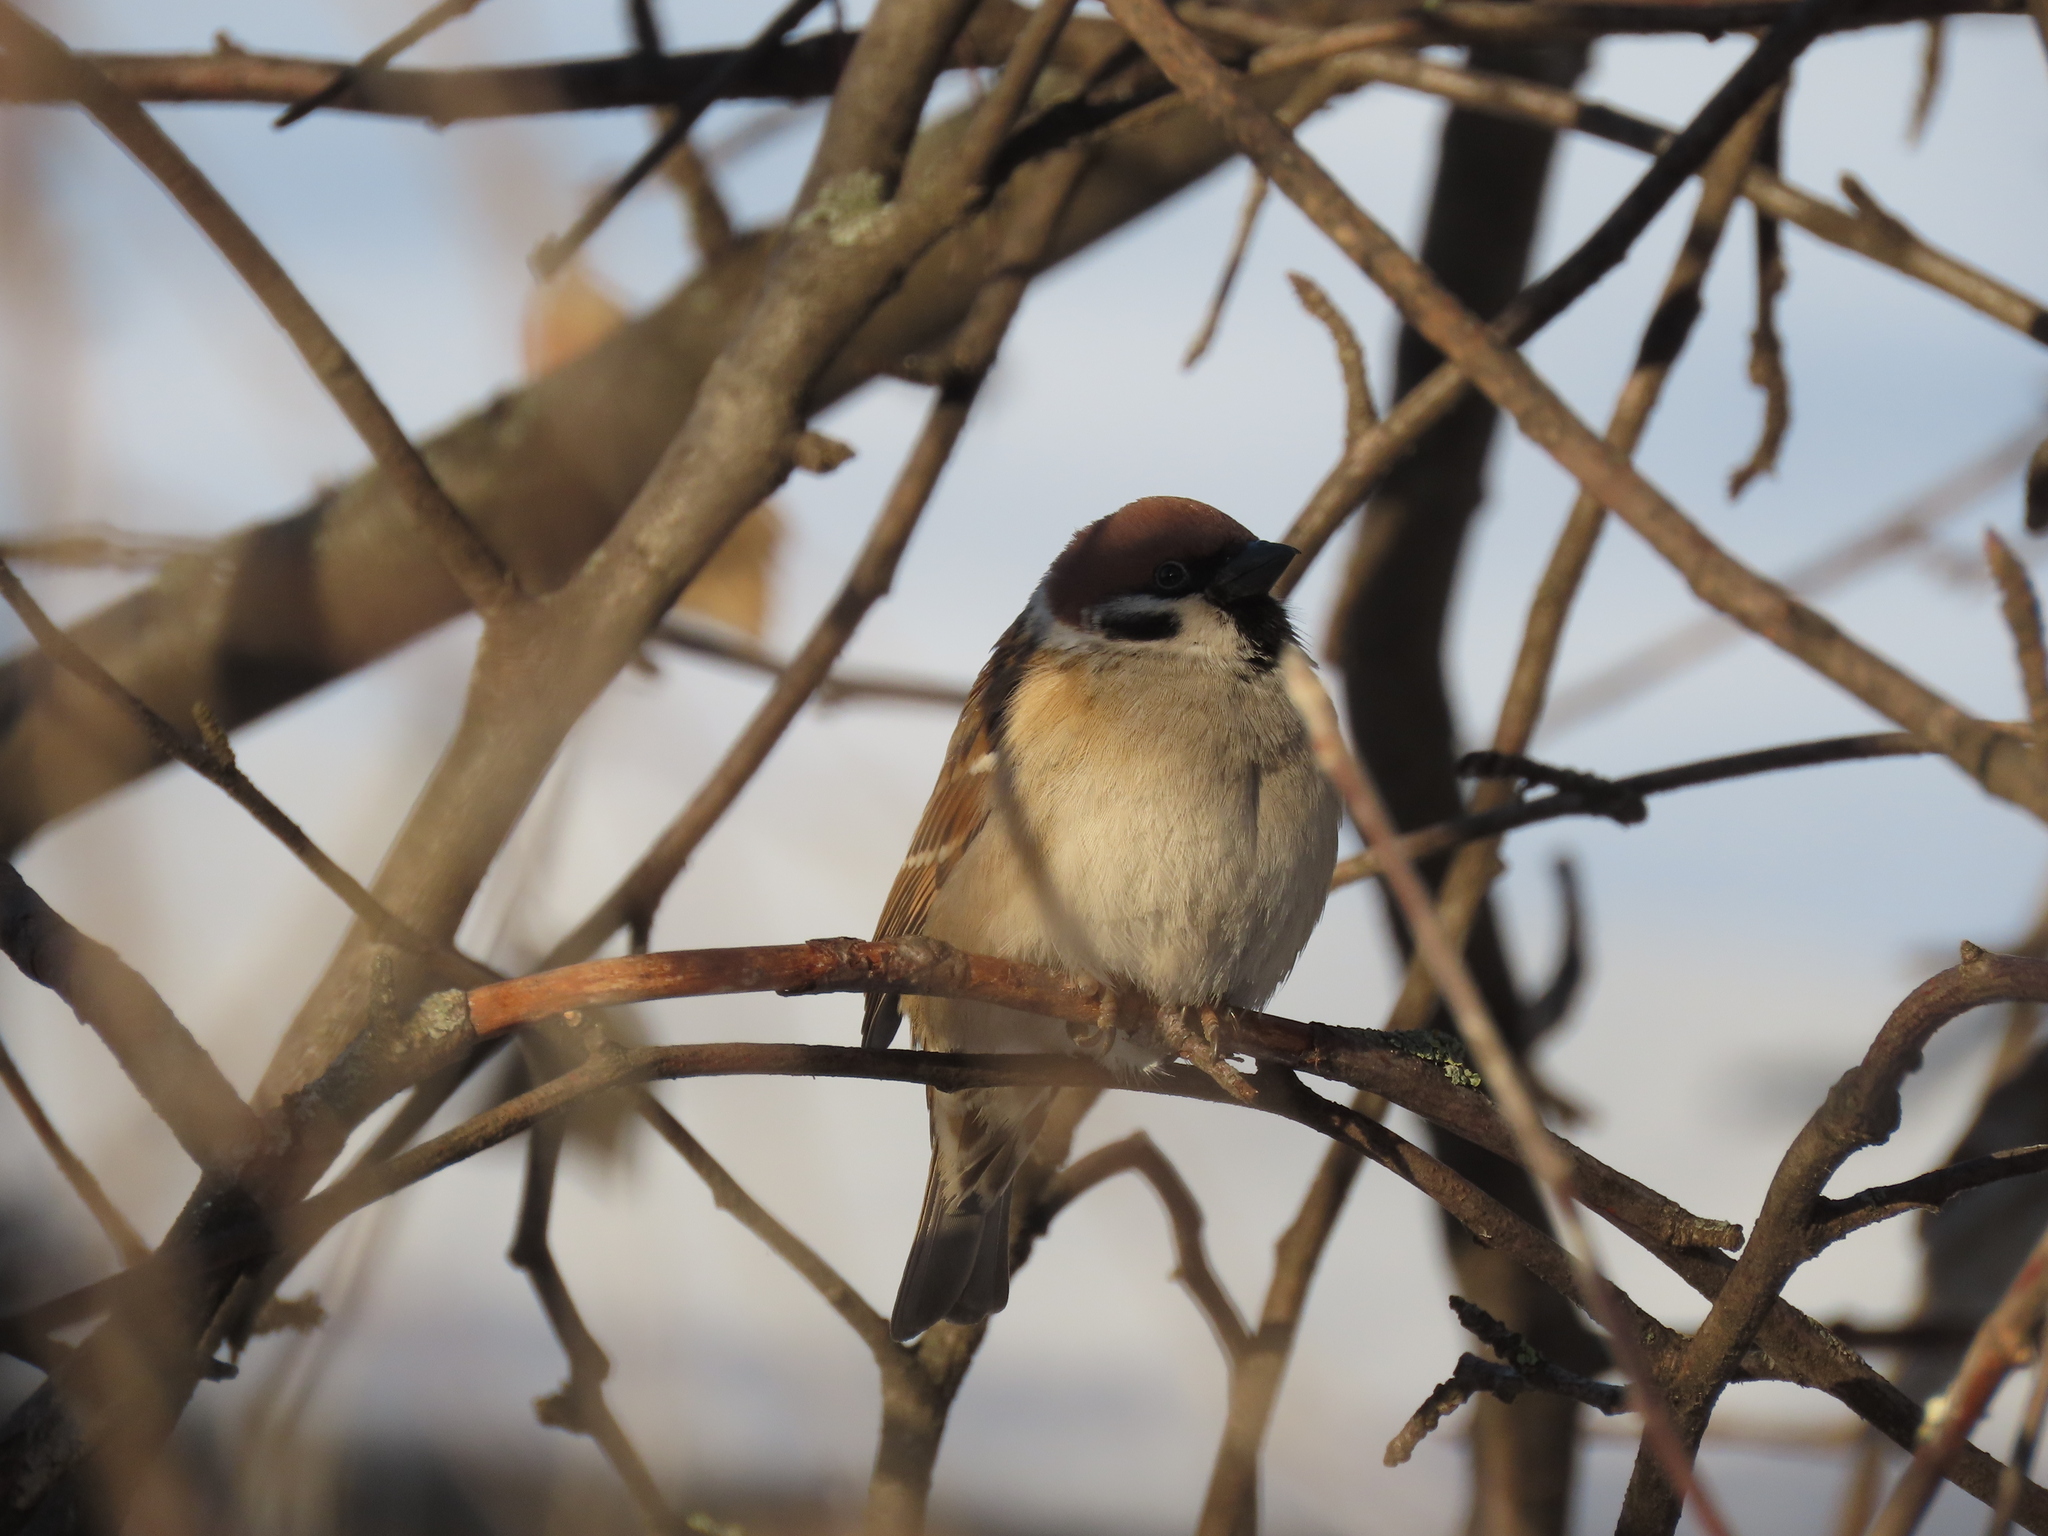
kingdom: Animalia
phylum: Chordata
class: Aves
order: Passeriformes
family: Passeridae
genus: Passer
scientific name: Passer montanus
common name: Eurasian tree sparrow
